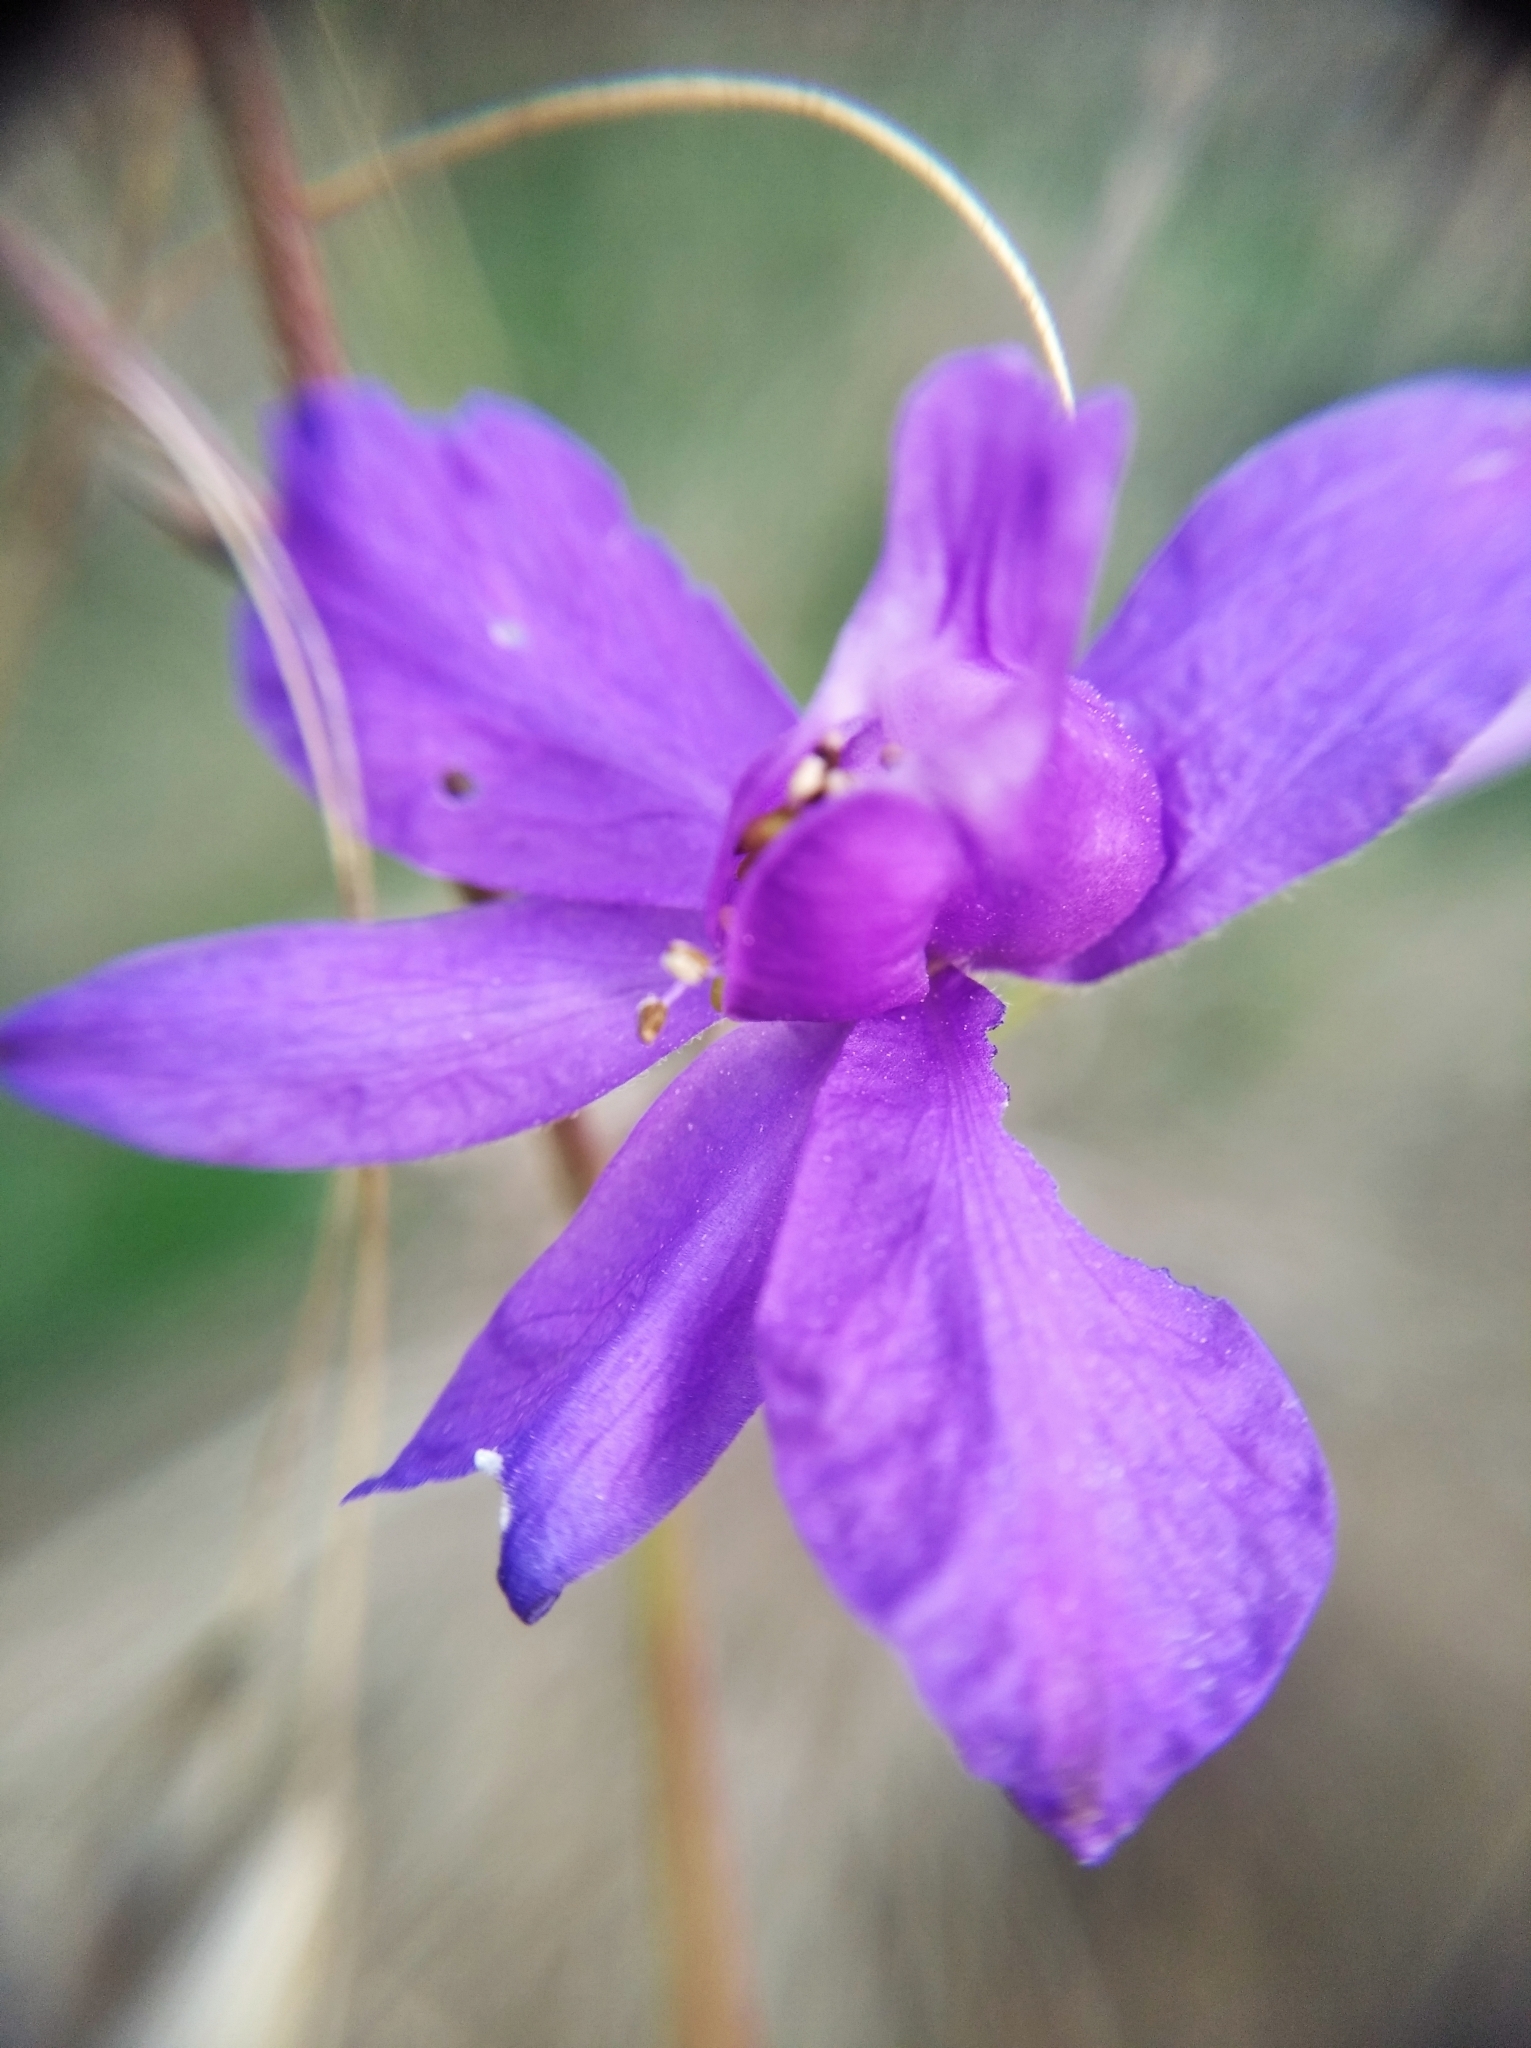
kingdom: Plantae
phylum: Tracheophyta
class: Magnoliopsida
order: Ranunculales
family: Ranunculaceae
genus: Delphinium
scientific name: Delphinium consolida
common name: Branching larkspur
